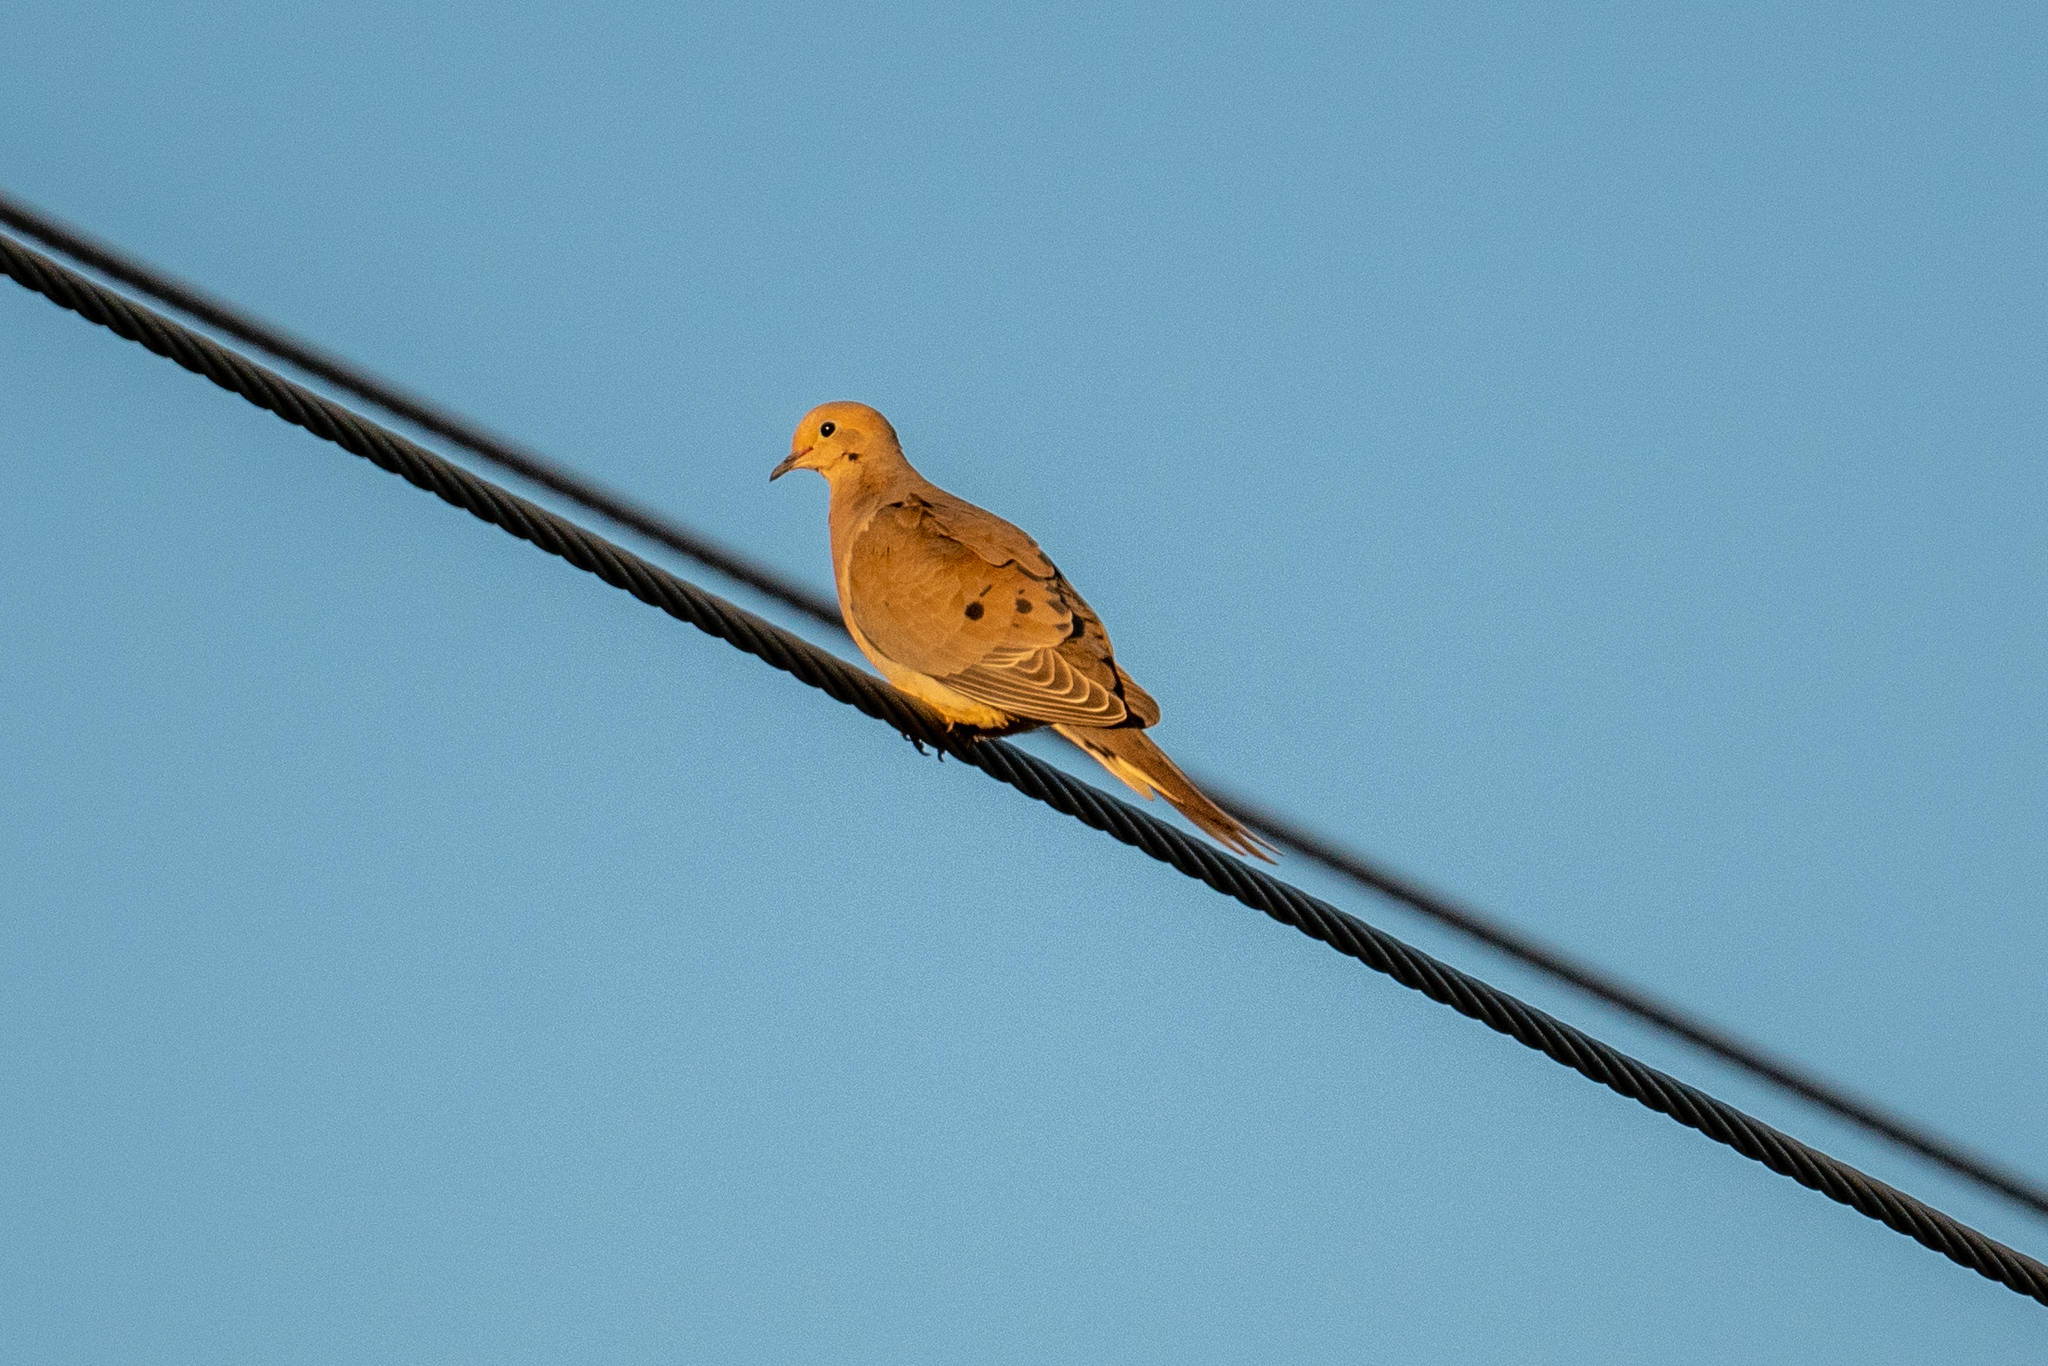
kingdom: Animalia
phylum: Chordata
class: Aves
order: Columbiformes
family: Columbidae
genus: Zenaida
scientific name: Zenaida macroura
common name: Mourning dove
